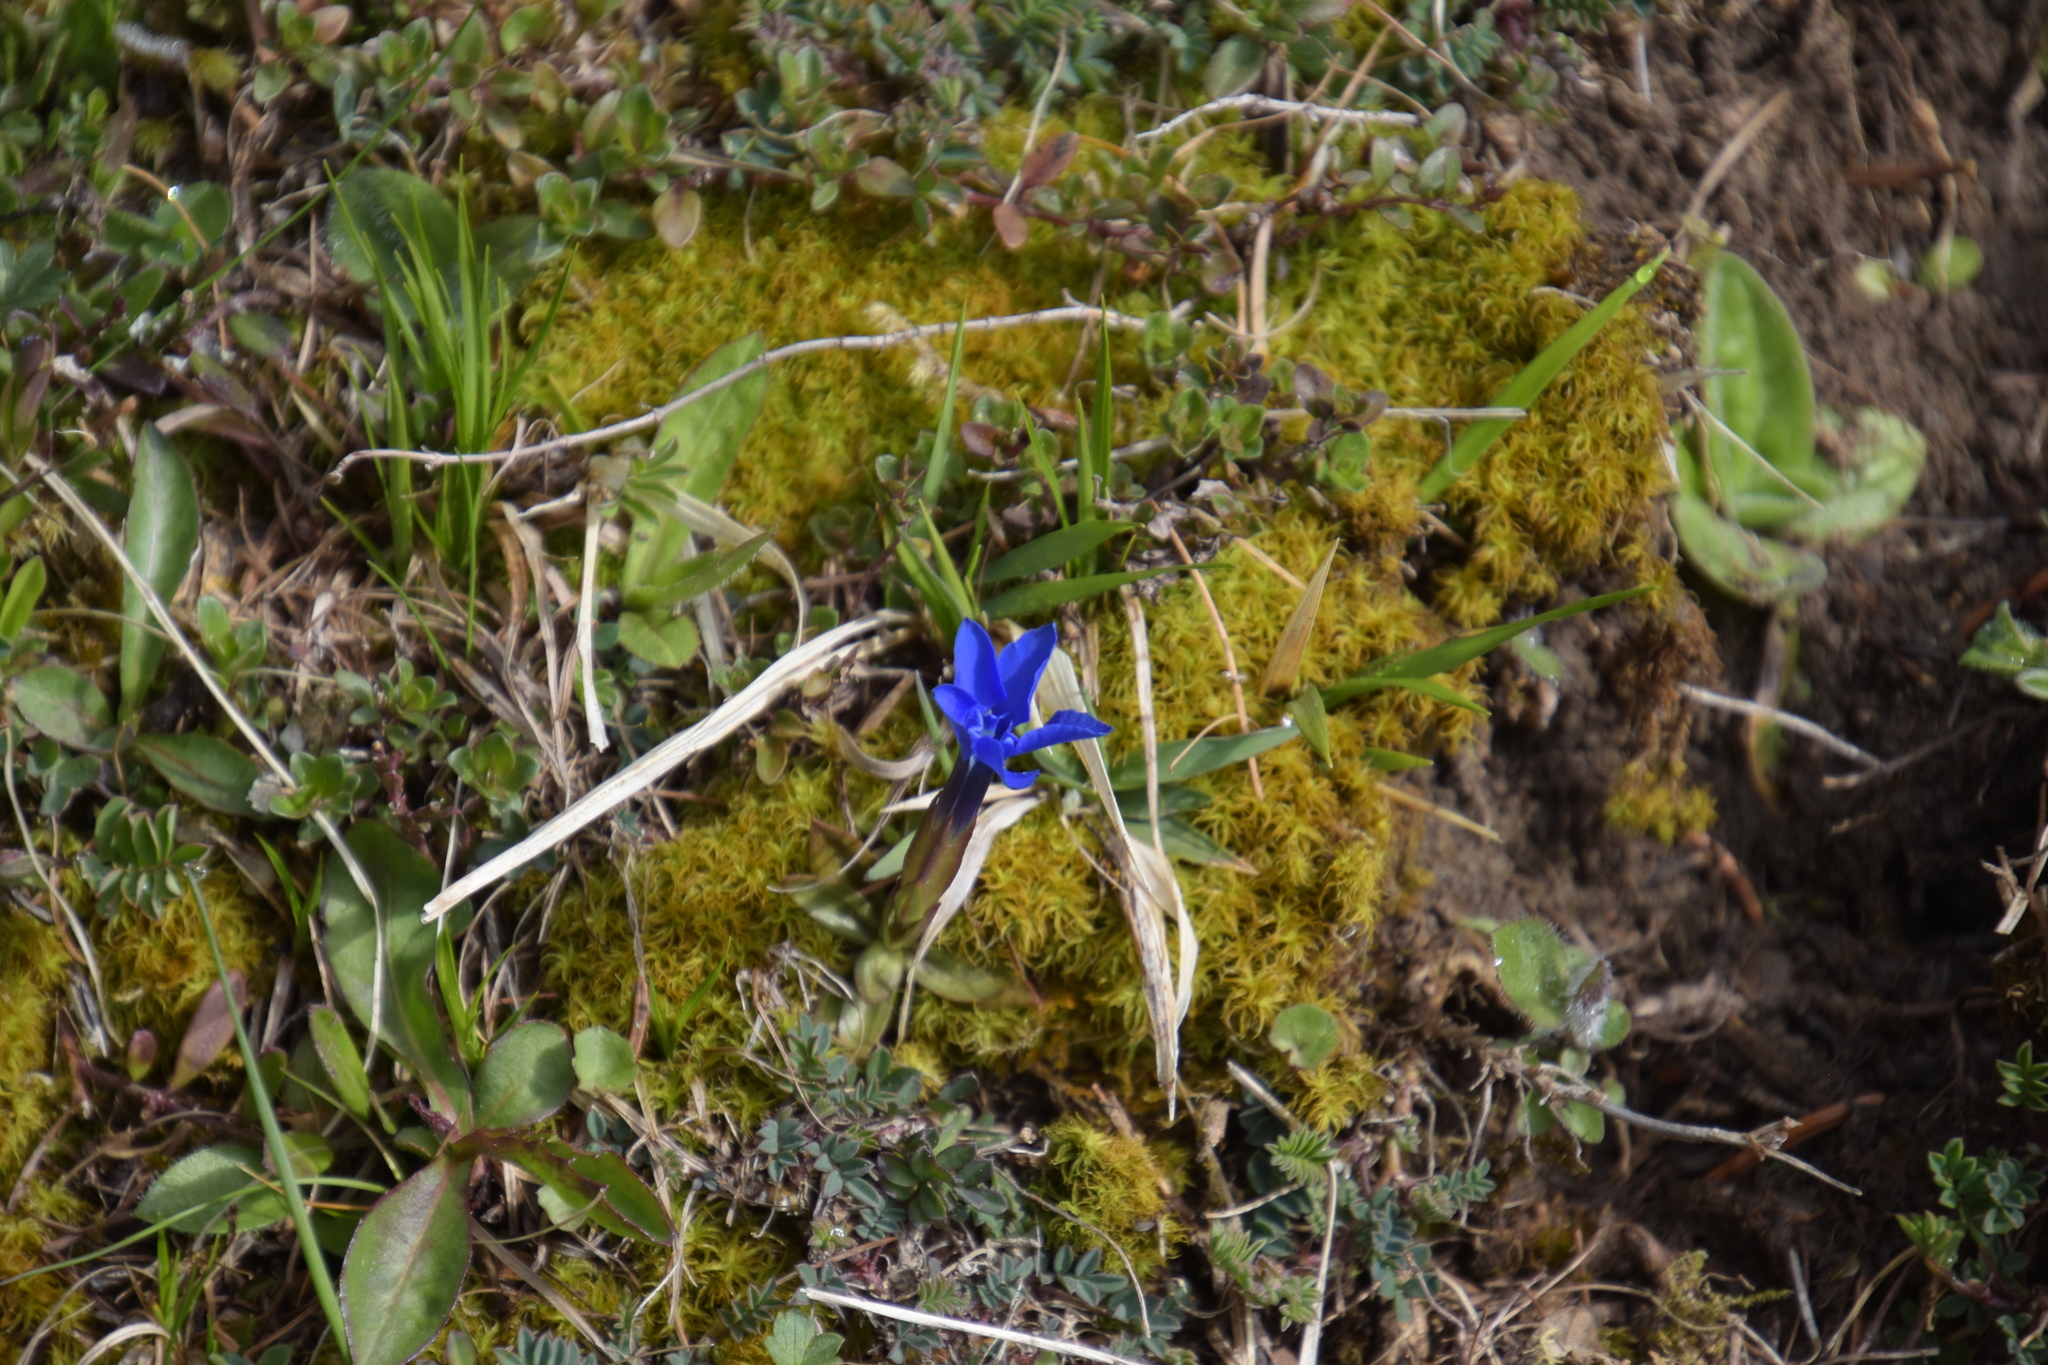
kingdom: Plantae
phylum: Tracheophyta
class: Magnoliopsida
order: Gentianales
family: Gentianaceae
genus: Gentiana
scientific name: Gentiana verna
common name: Spring gentian
